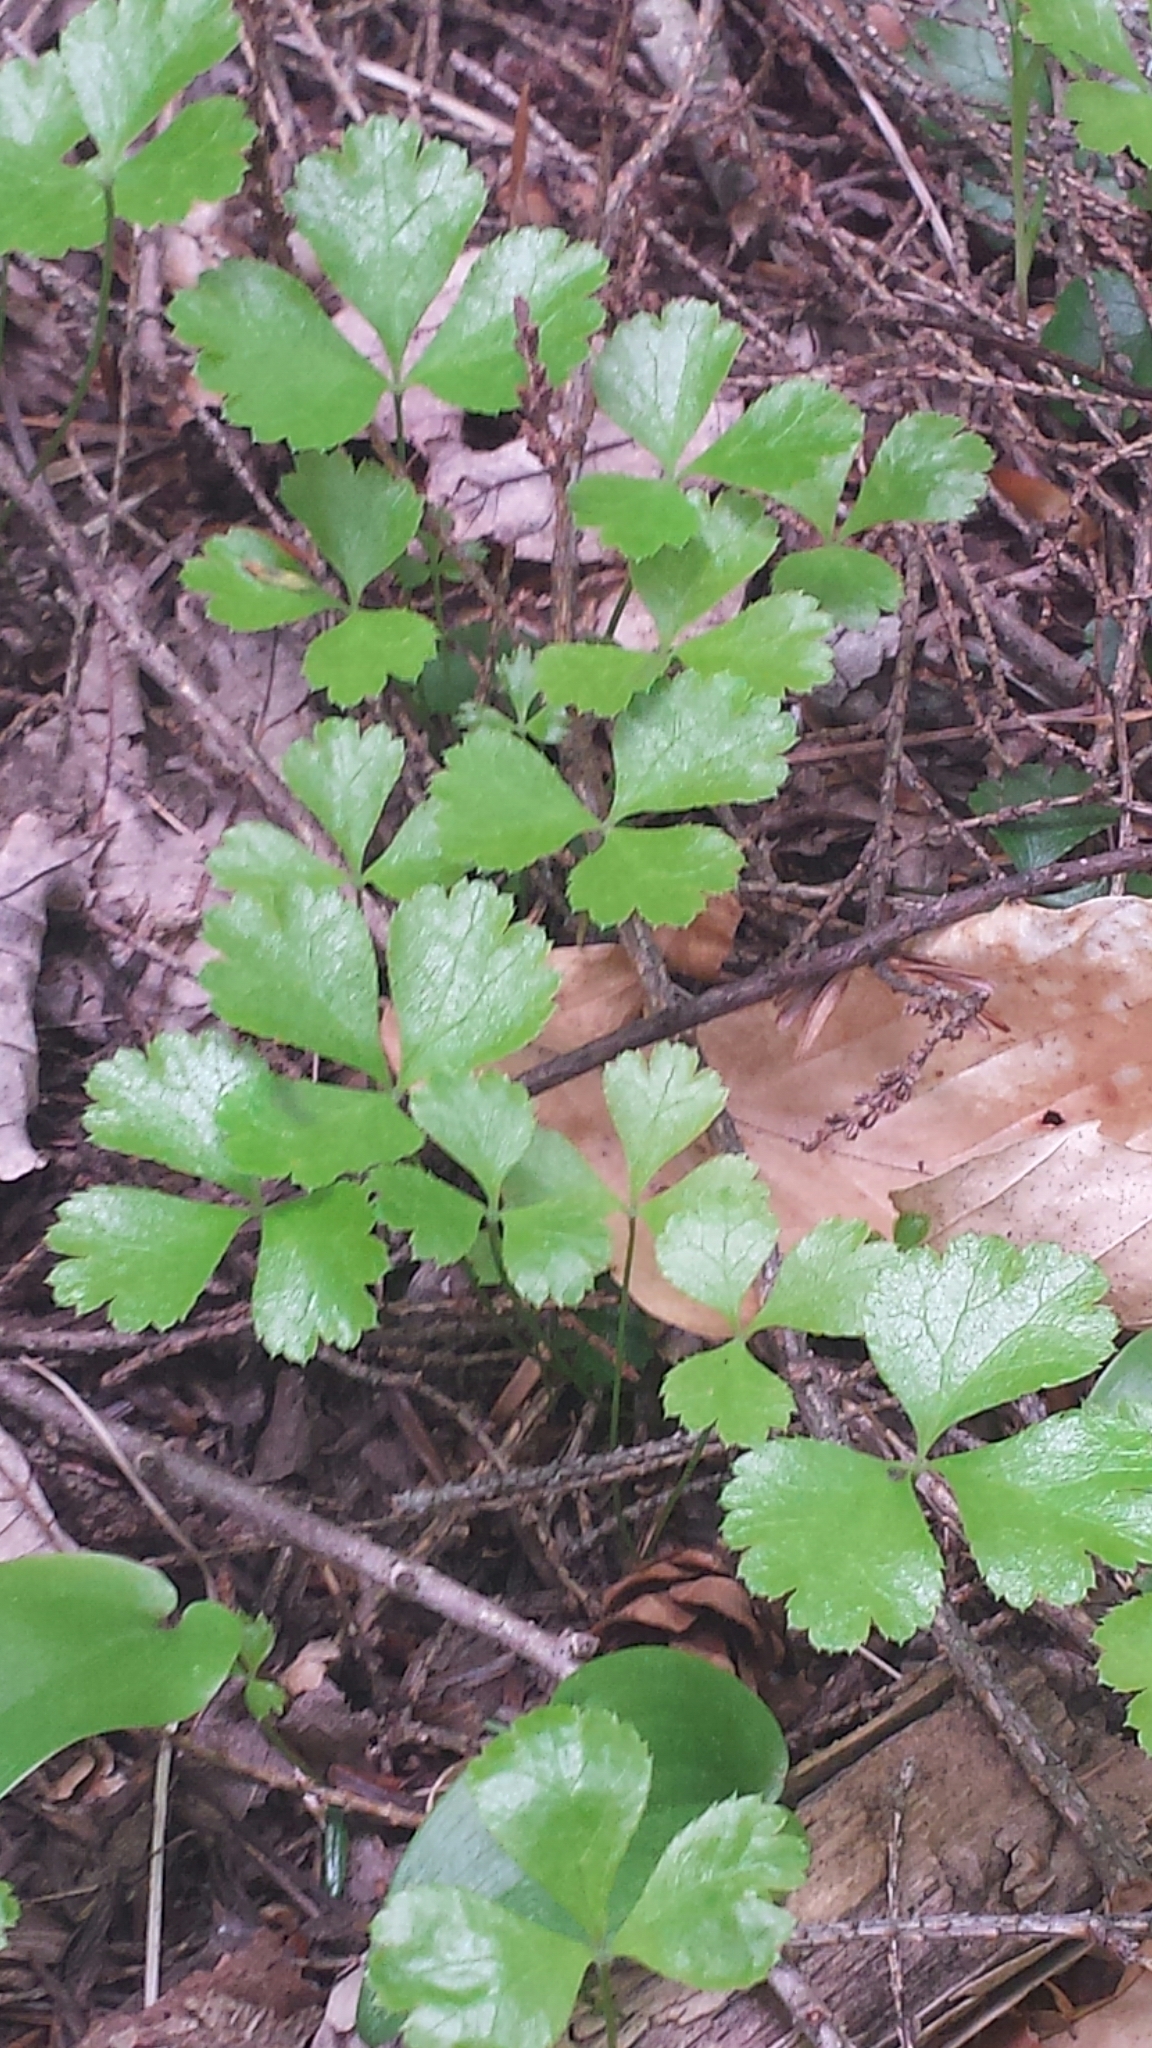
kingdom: Plantae
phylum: Tracheophyta
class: Magnoliopsida
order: Ranunculales
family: Ranunculaceae
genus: Coptis
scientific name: Coptis trifolia
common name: Canker-root
